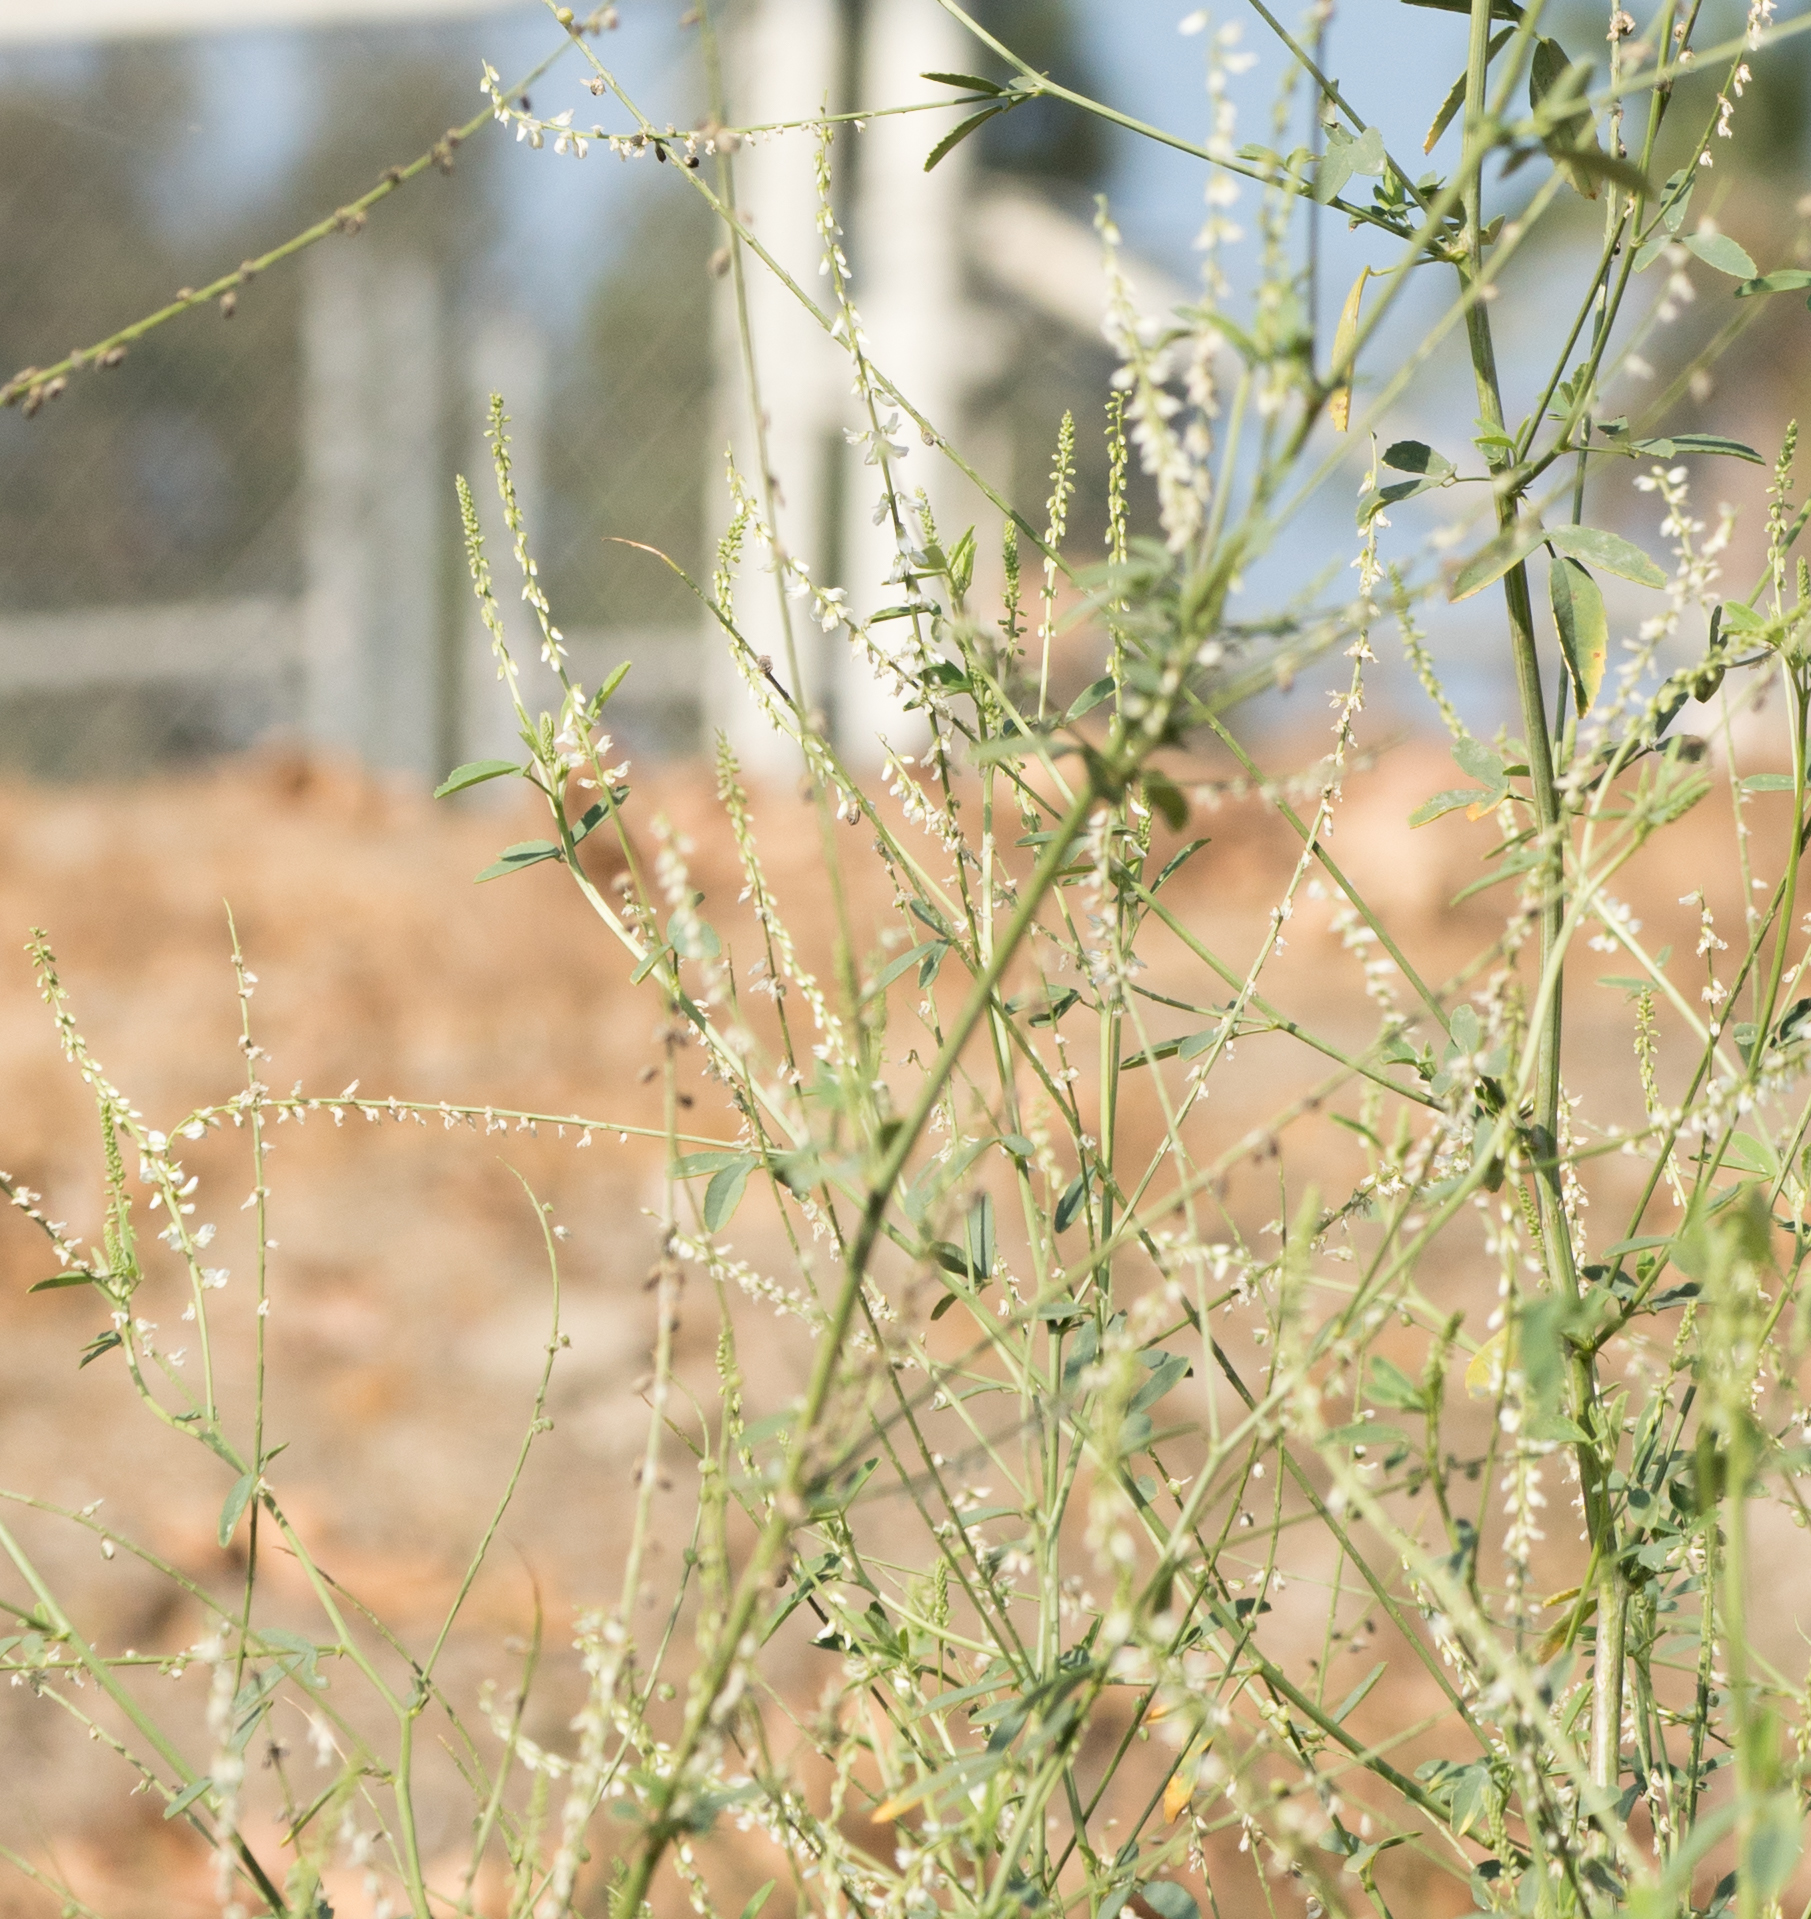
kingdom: Plantae
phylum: Tracheophyta
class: Magnoliopsida
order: Fabales
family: Fabaceae
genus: Melilotus
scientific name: Melilotus albus
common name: White melilot
